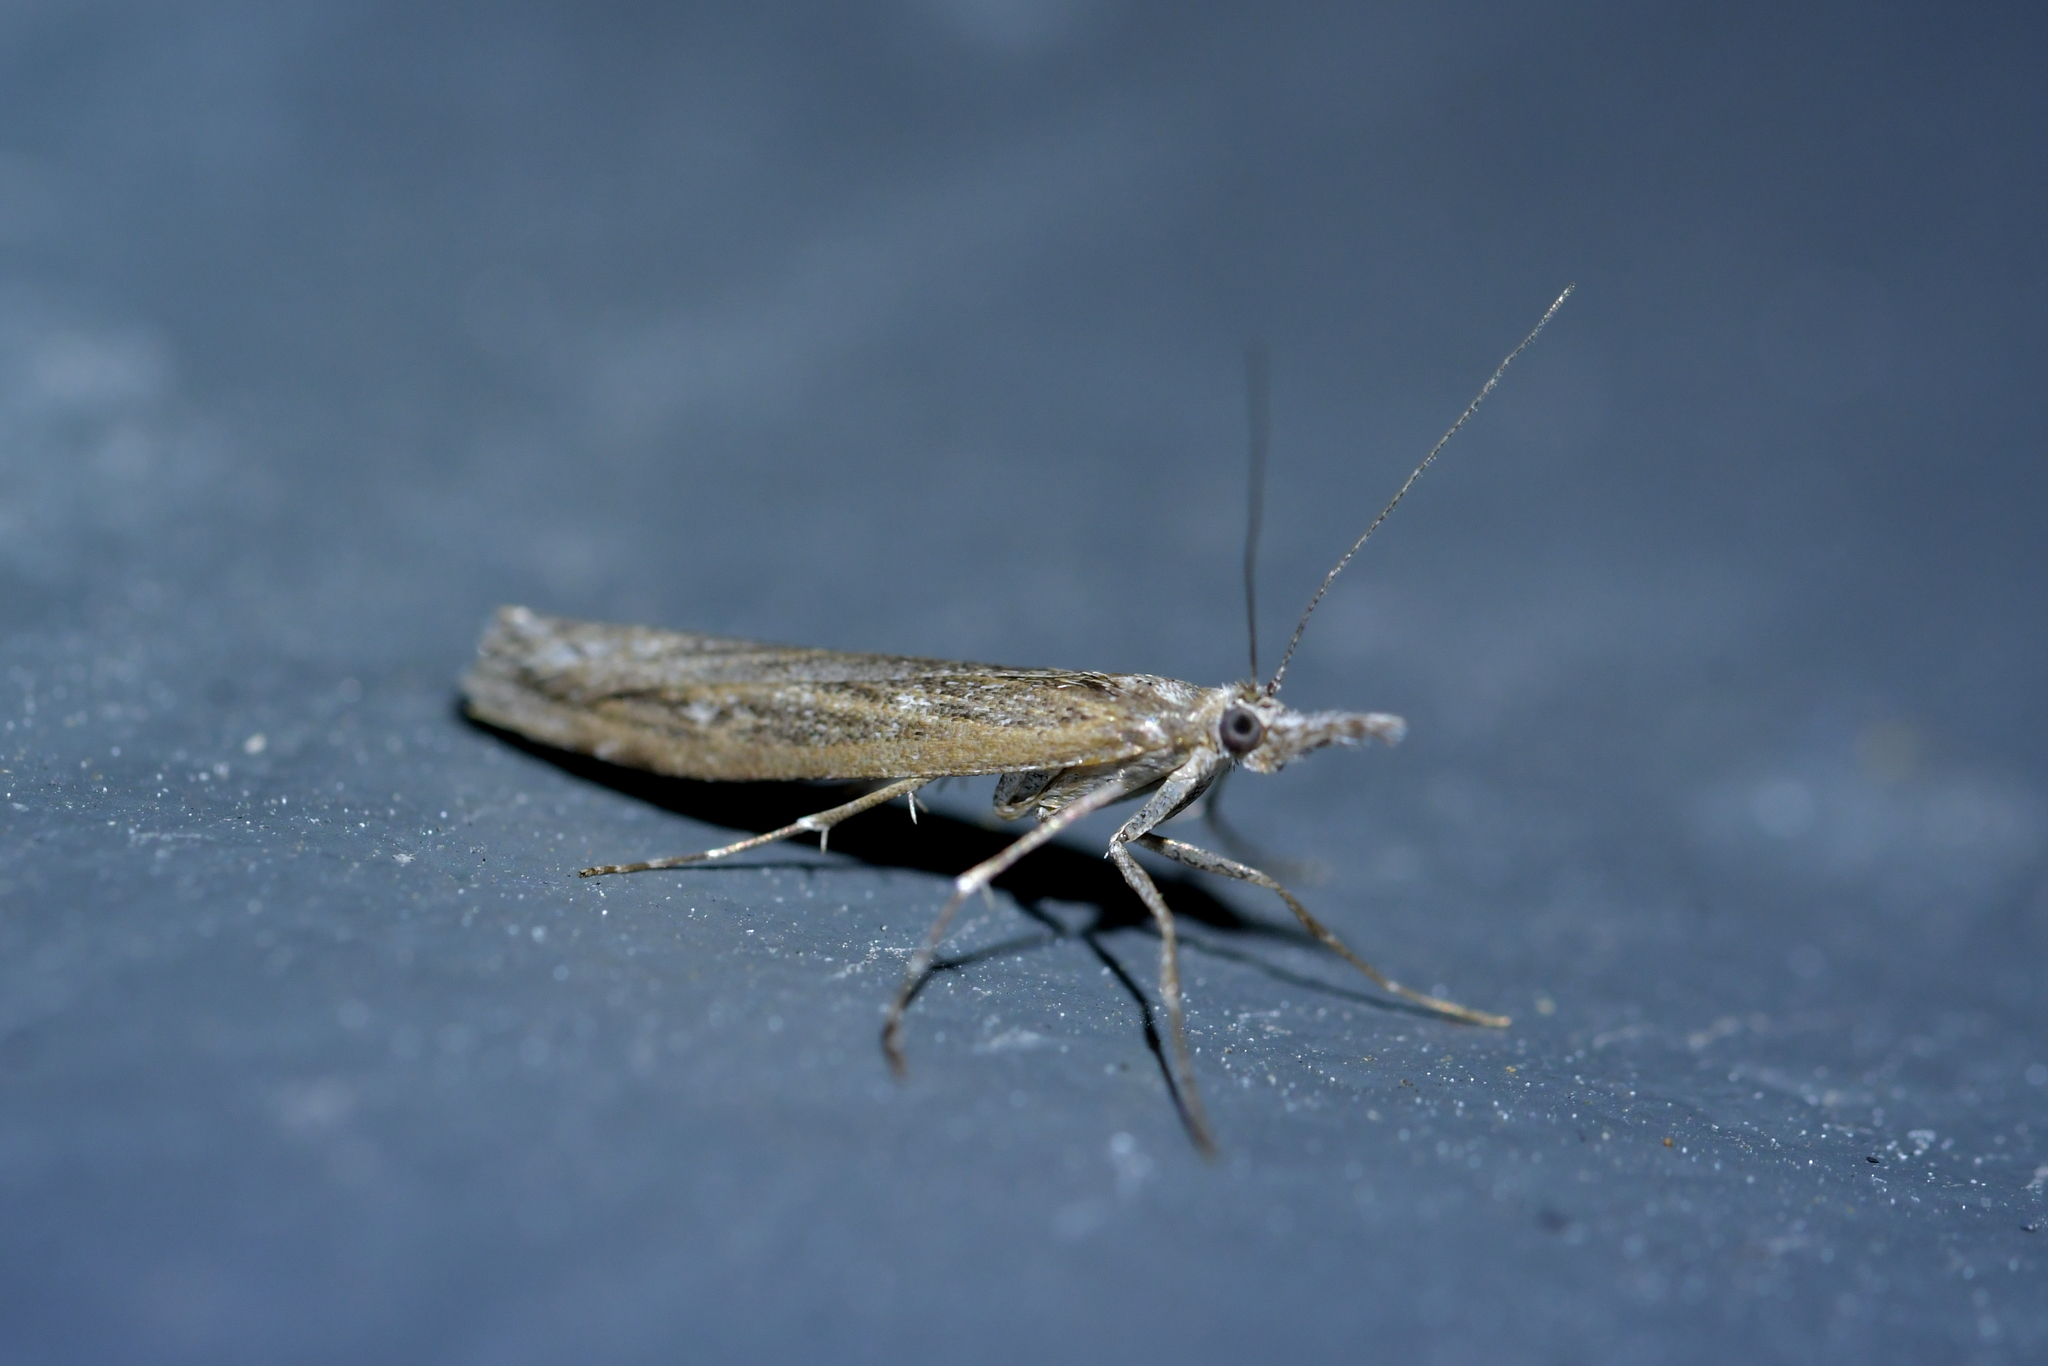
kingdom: Animalia
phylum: Arthropoda
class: Insecta
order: Lepidoptera
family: Crambidae
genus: Orocrambus
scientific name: Orocrambus cyclopicus
